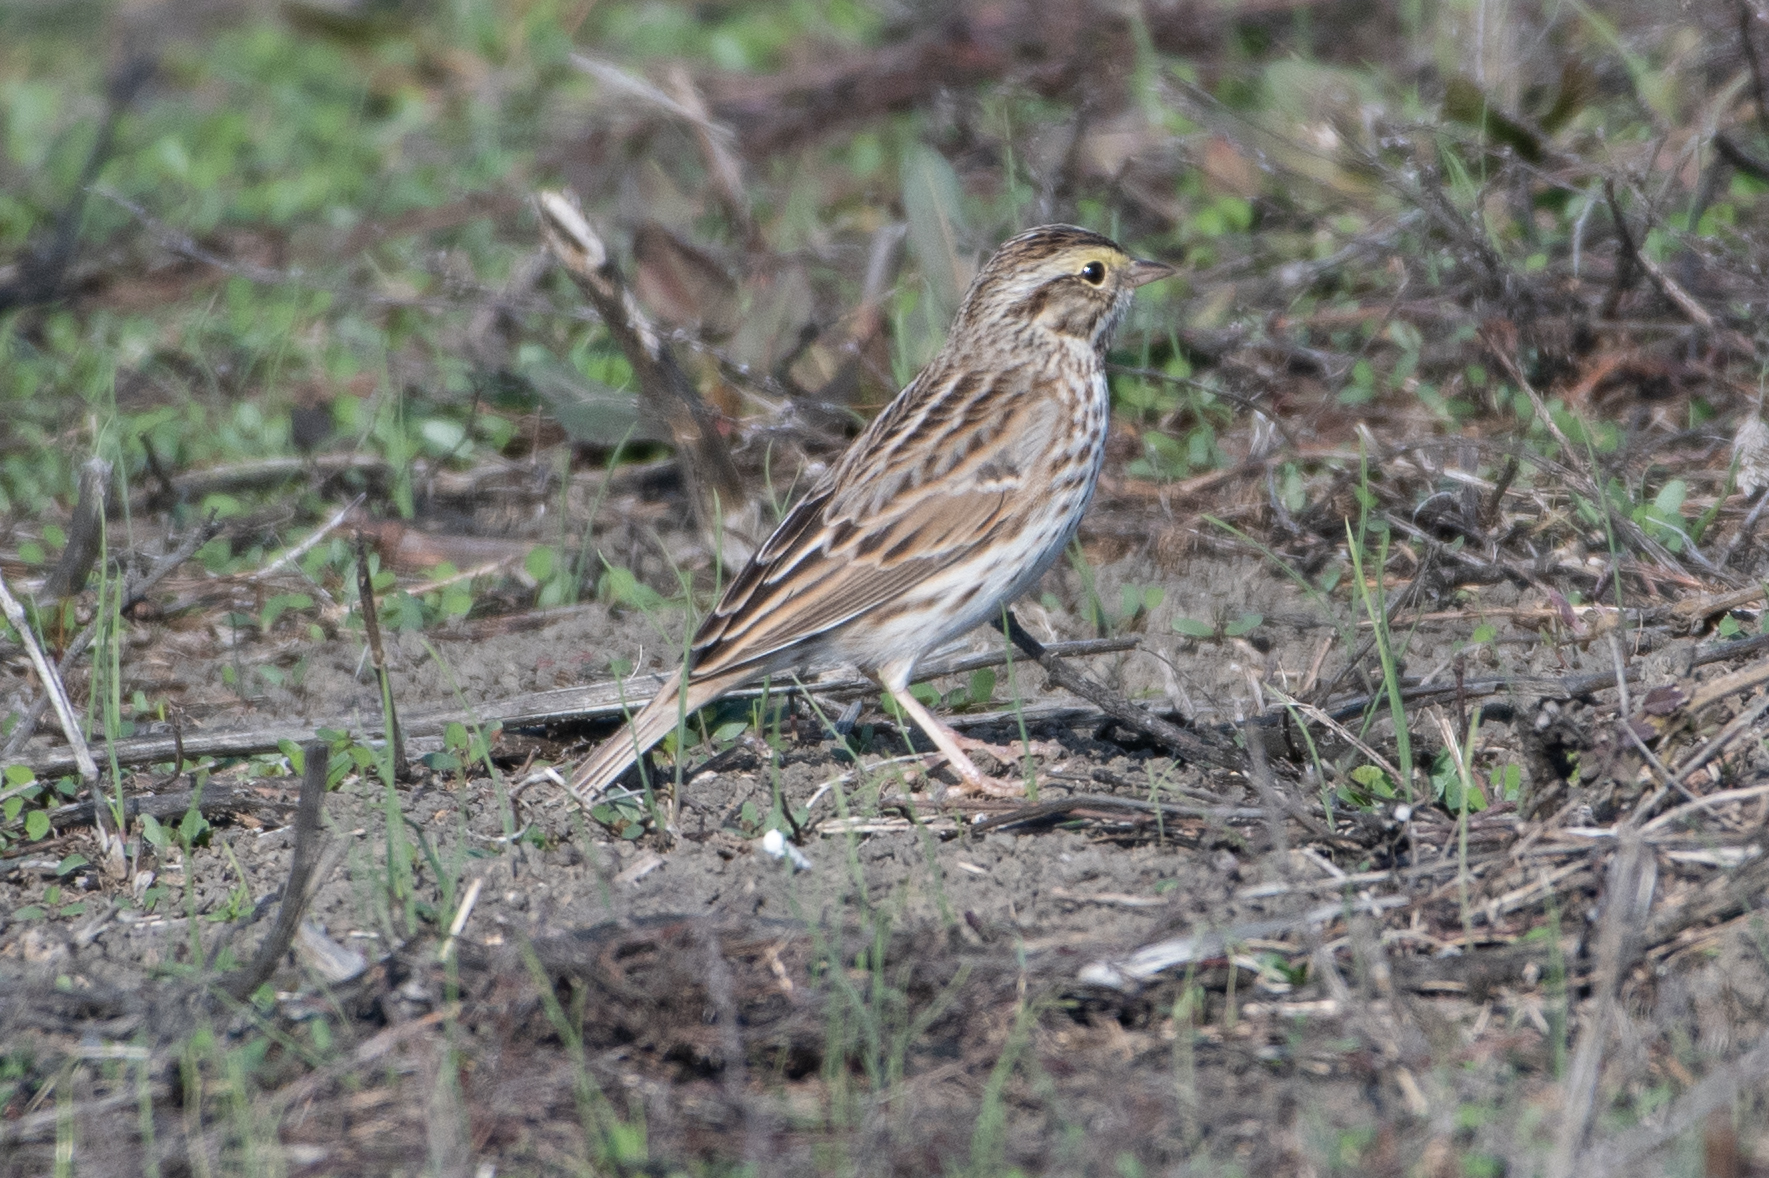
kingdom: Animalia
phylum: Chordata
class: Aves
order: Passeriformes
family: Passerellidae
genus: Passerculus
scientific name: Passerculus sandwichensis
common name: Savannah sparrow
